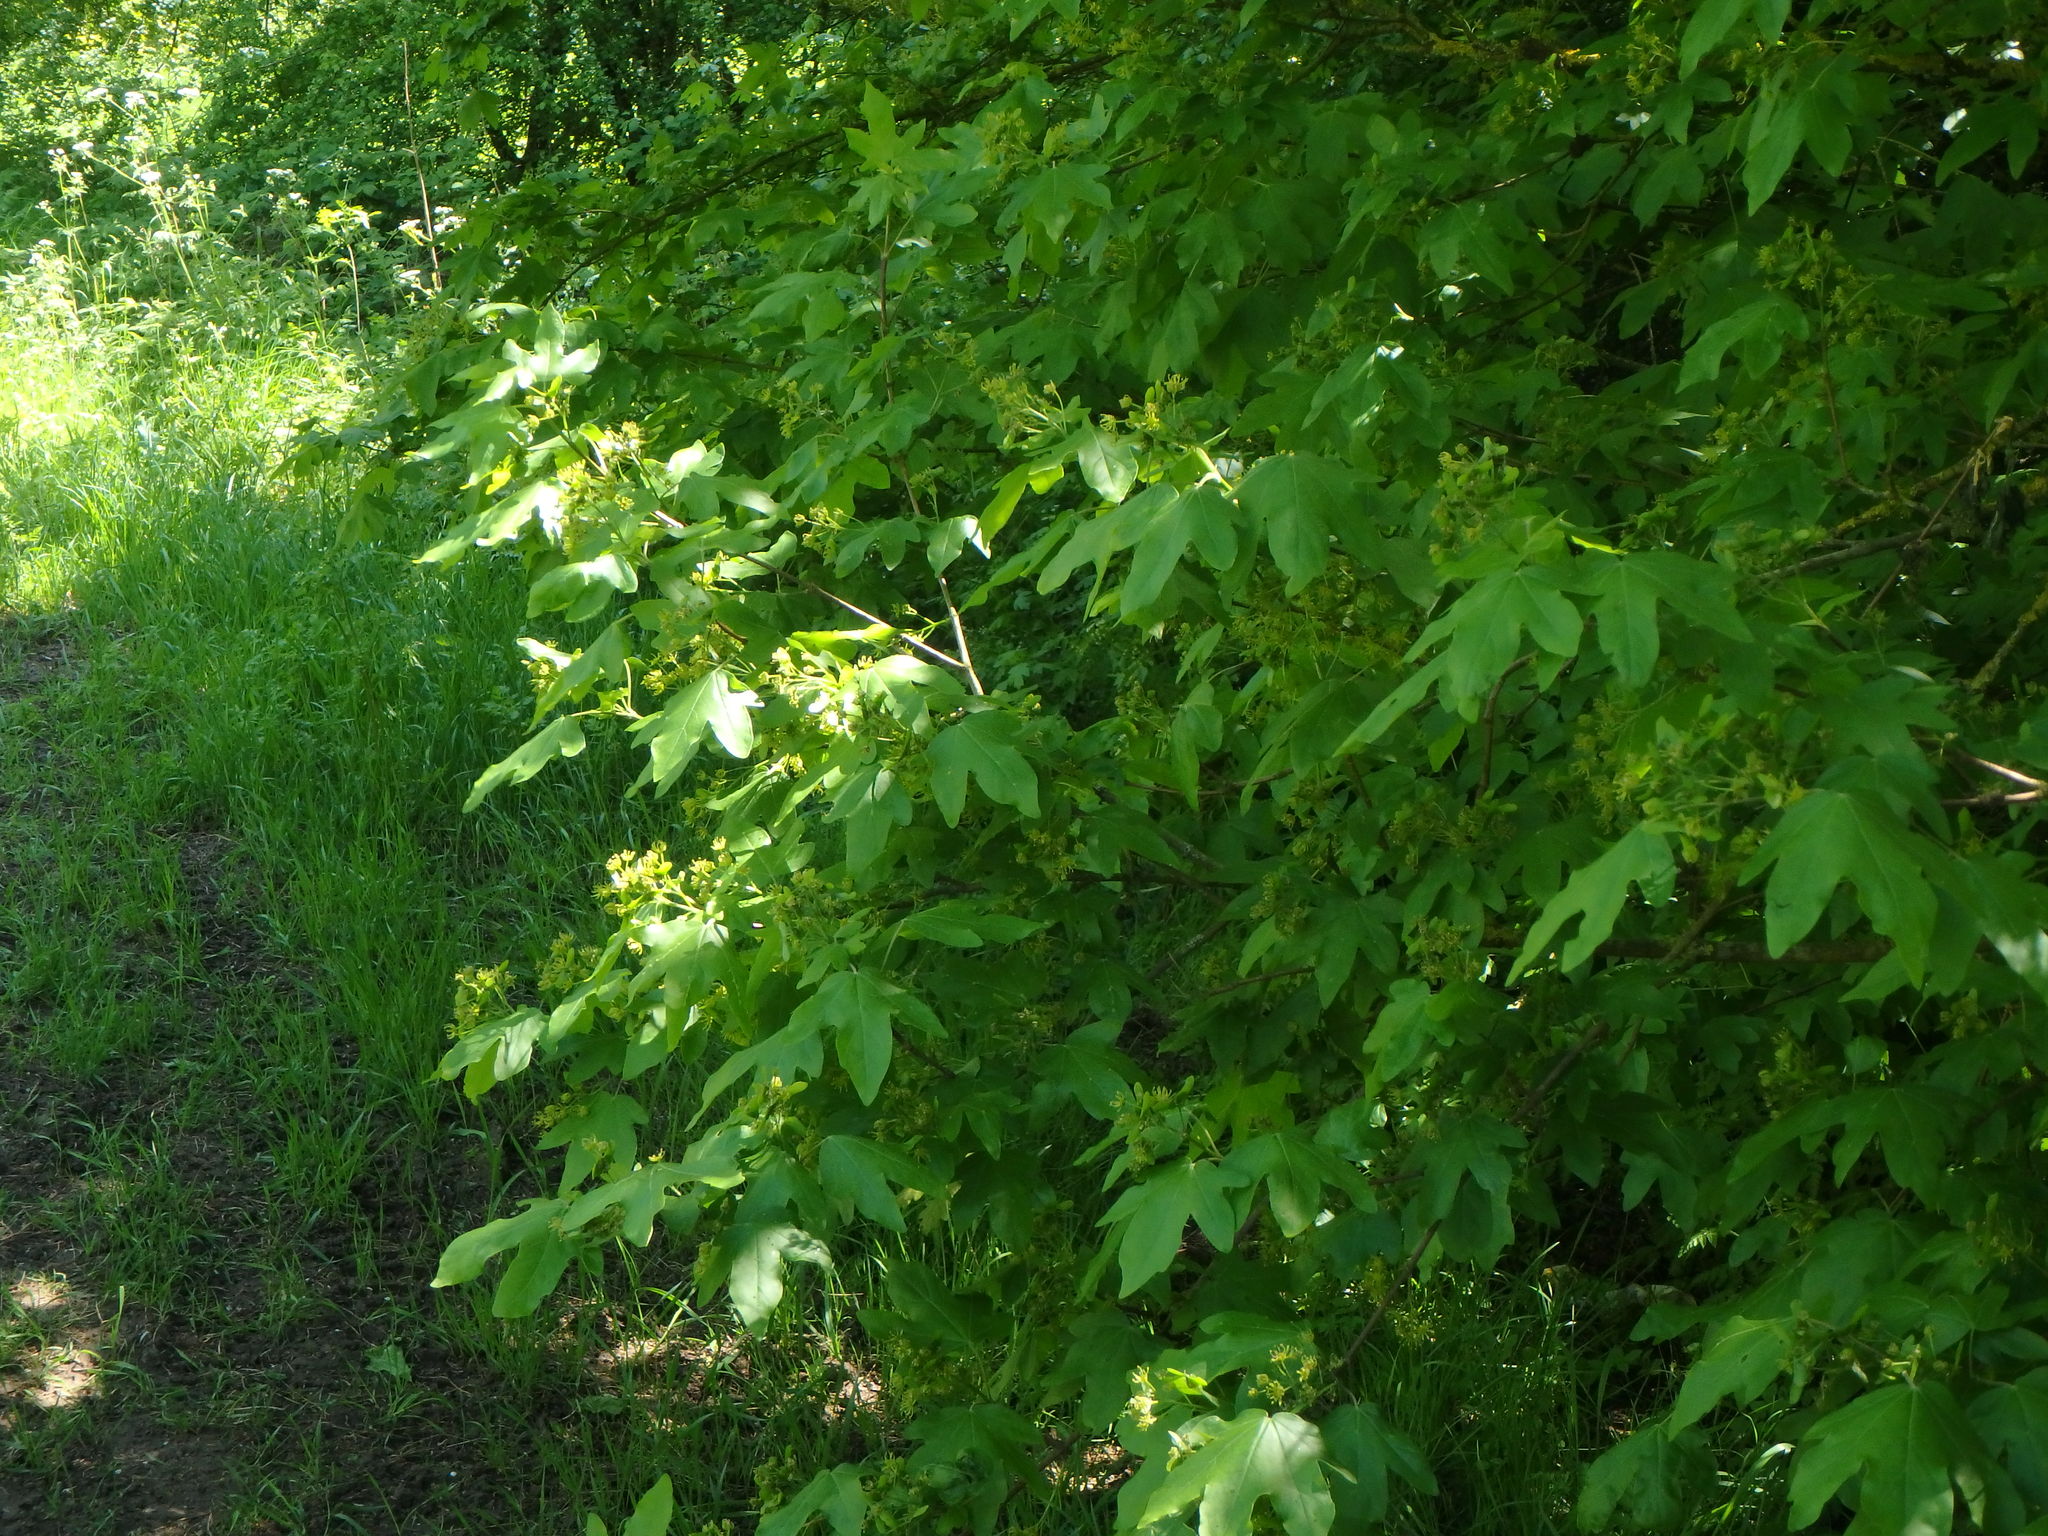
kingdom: Plantae
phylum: Tracheophyta
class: Magnoliopsida
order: Sapindales
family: Sapindaceae
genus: Acer
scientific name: Acer campestre
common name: Field maple
